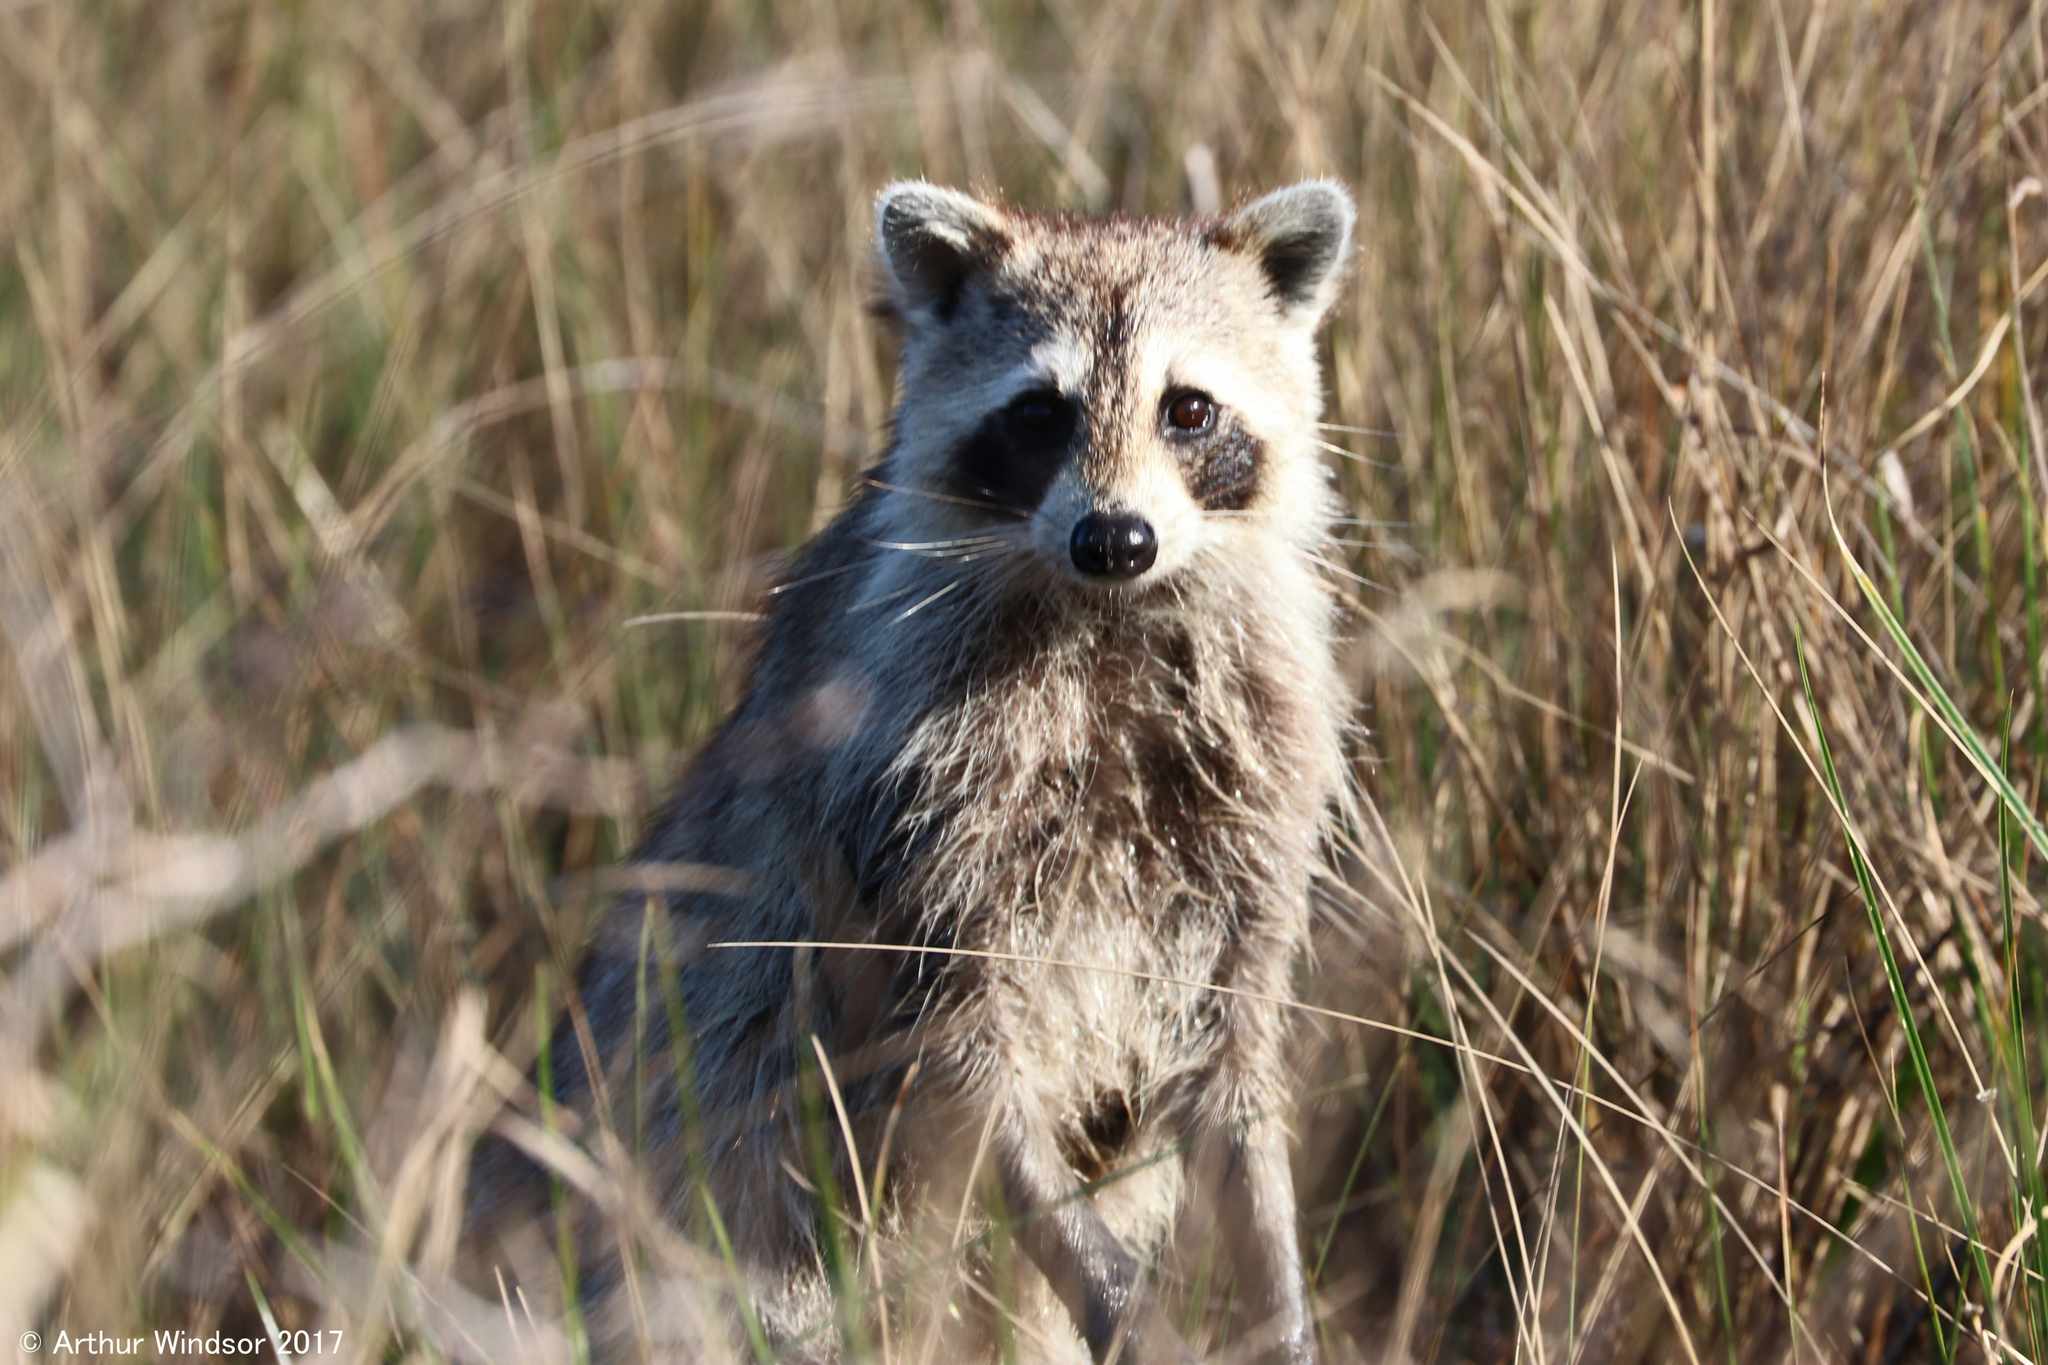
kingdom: Animalia
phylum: Chordata
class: Mammalia
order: Carnivora
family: Procyonidae
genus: Procyon
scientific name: Procyon lotor
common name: Raccoon
